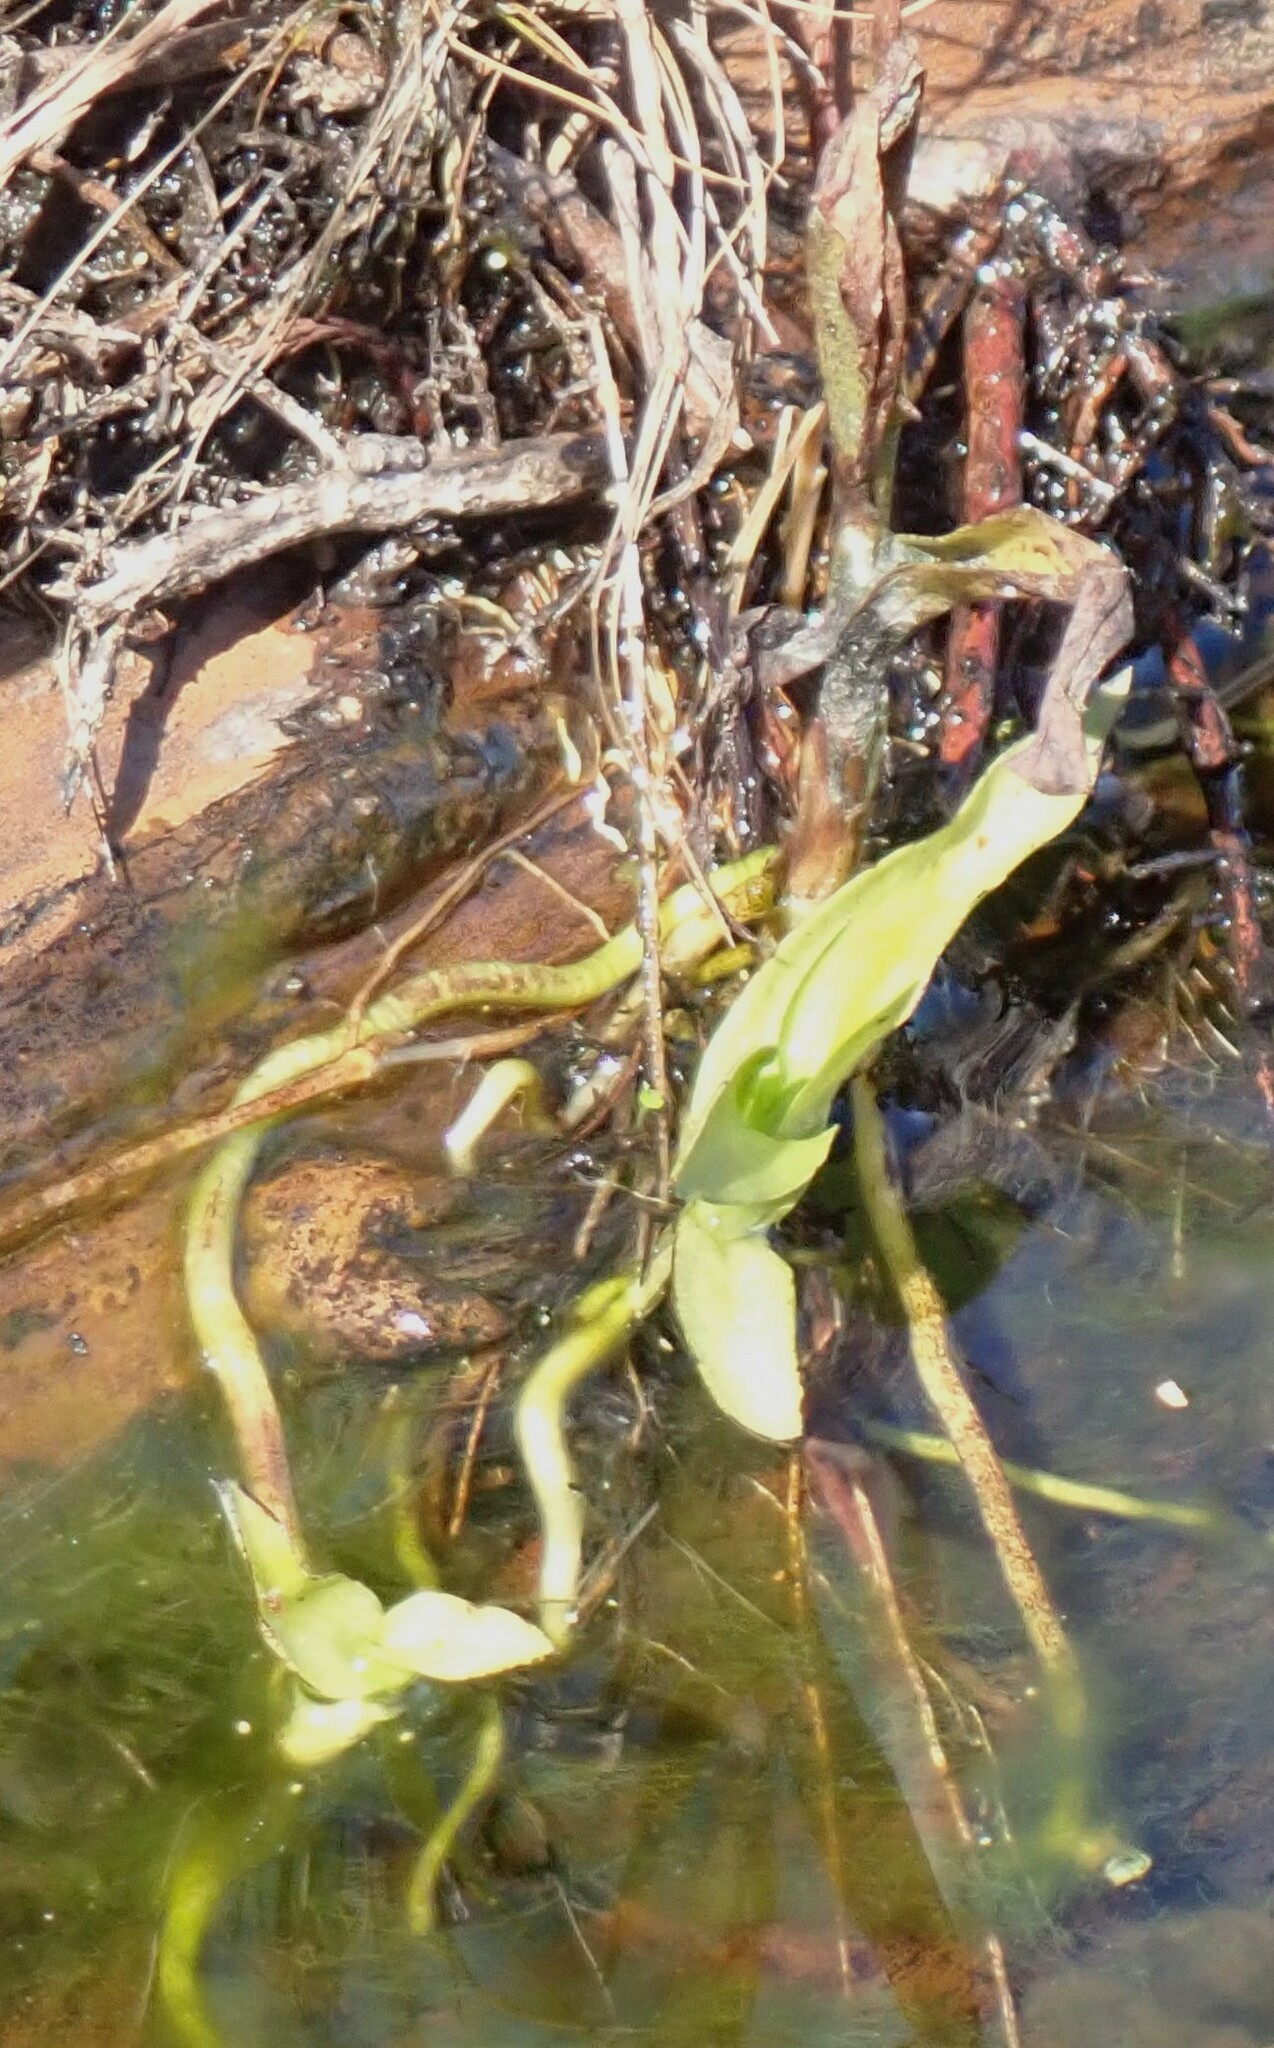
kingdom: Plantae
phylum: Tracheophyta
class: Liliopsida
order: Asparagales
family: Orchidaceae
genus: Habenaria
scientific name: Habenaria repens
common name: Water orchid
